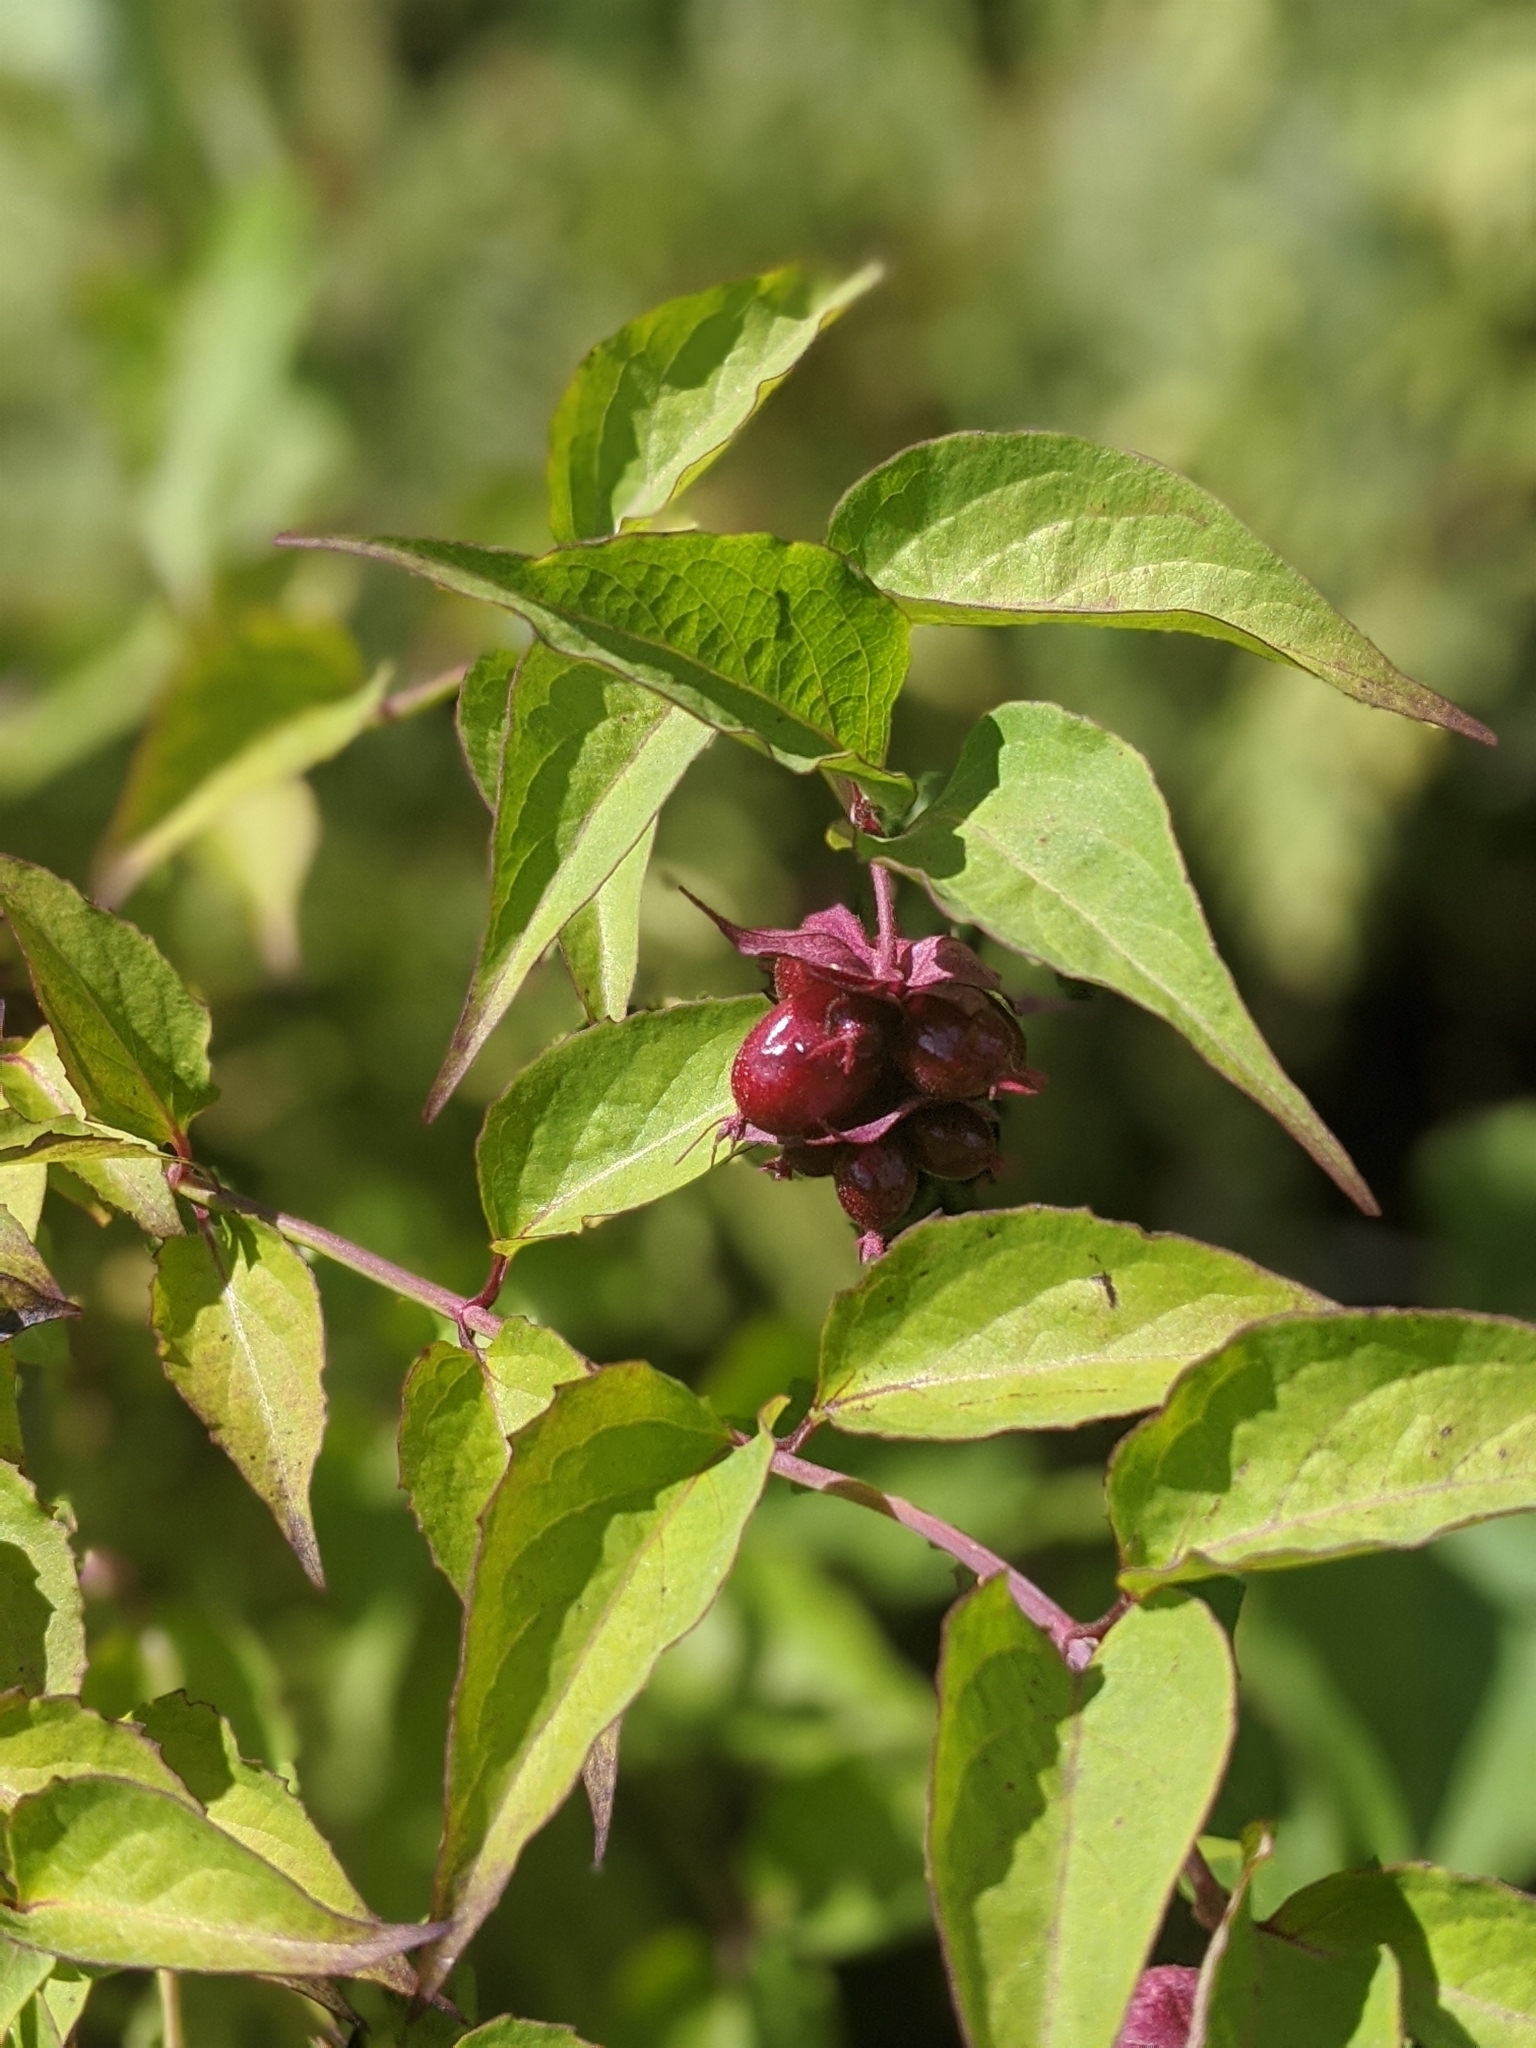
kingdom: Plantae
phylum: Tracheophyta
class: Magnoliopsida
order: Dipsacales
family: Caprifoliaceae
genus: Leycesteria
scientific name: Leycesteria formosa
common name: Himalayan honeysuckle
